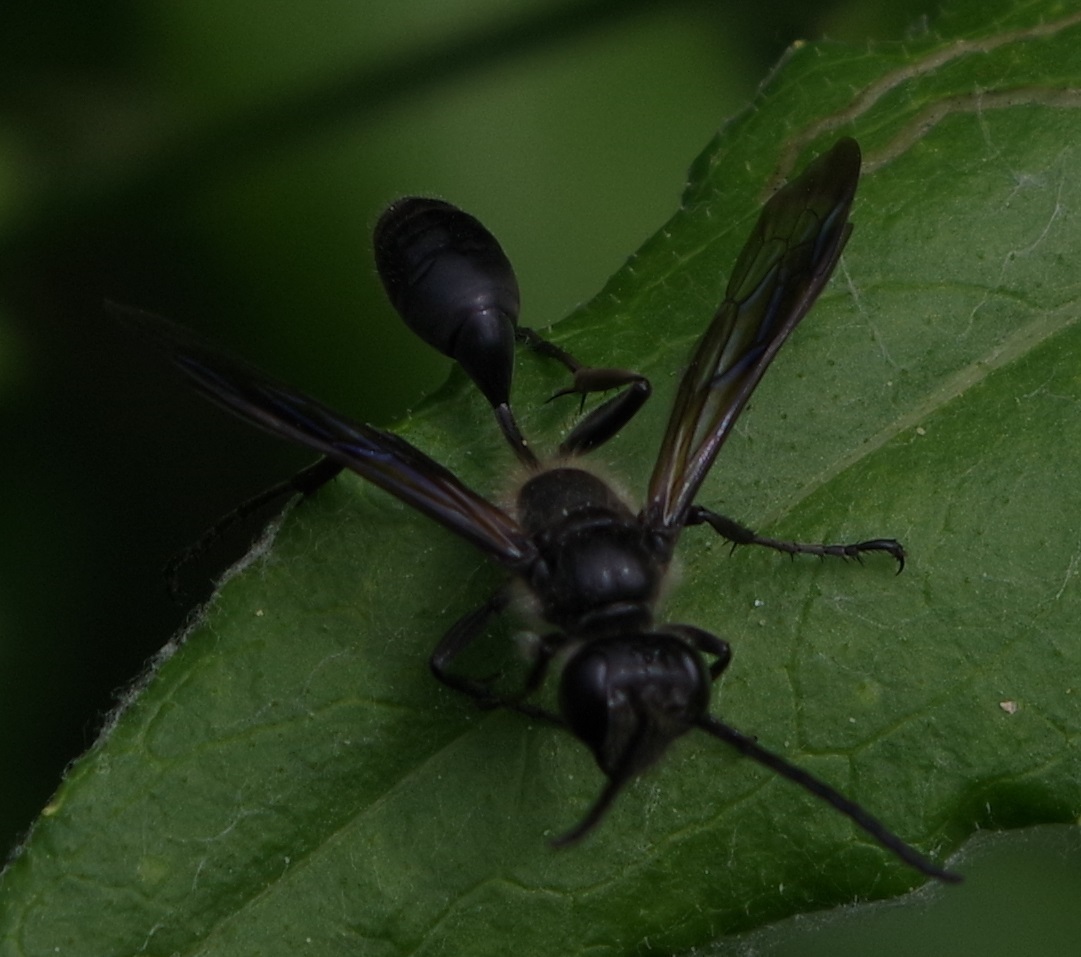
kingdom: Animalia
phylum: Arthropoda
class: Insecta
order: Hymenoptera
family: Sphecidae
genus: Isodontia
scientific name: Isodontia mexicana
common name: Mud dauber
